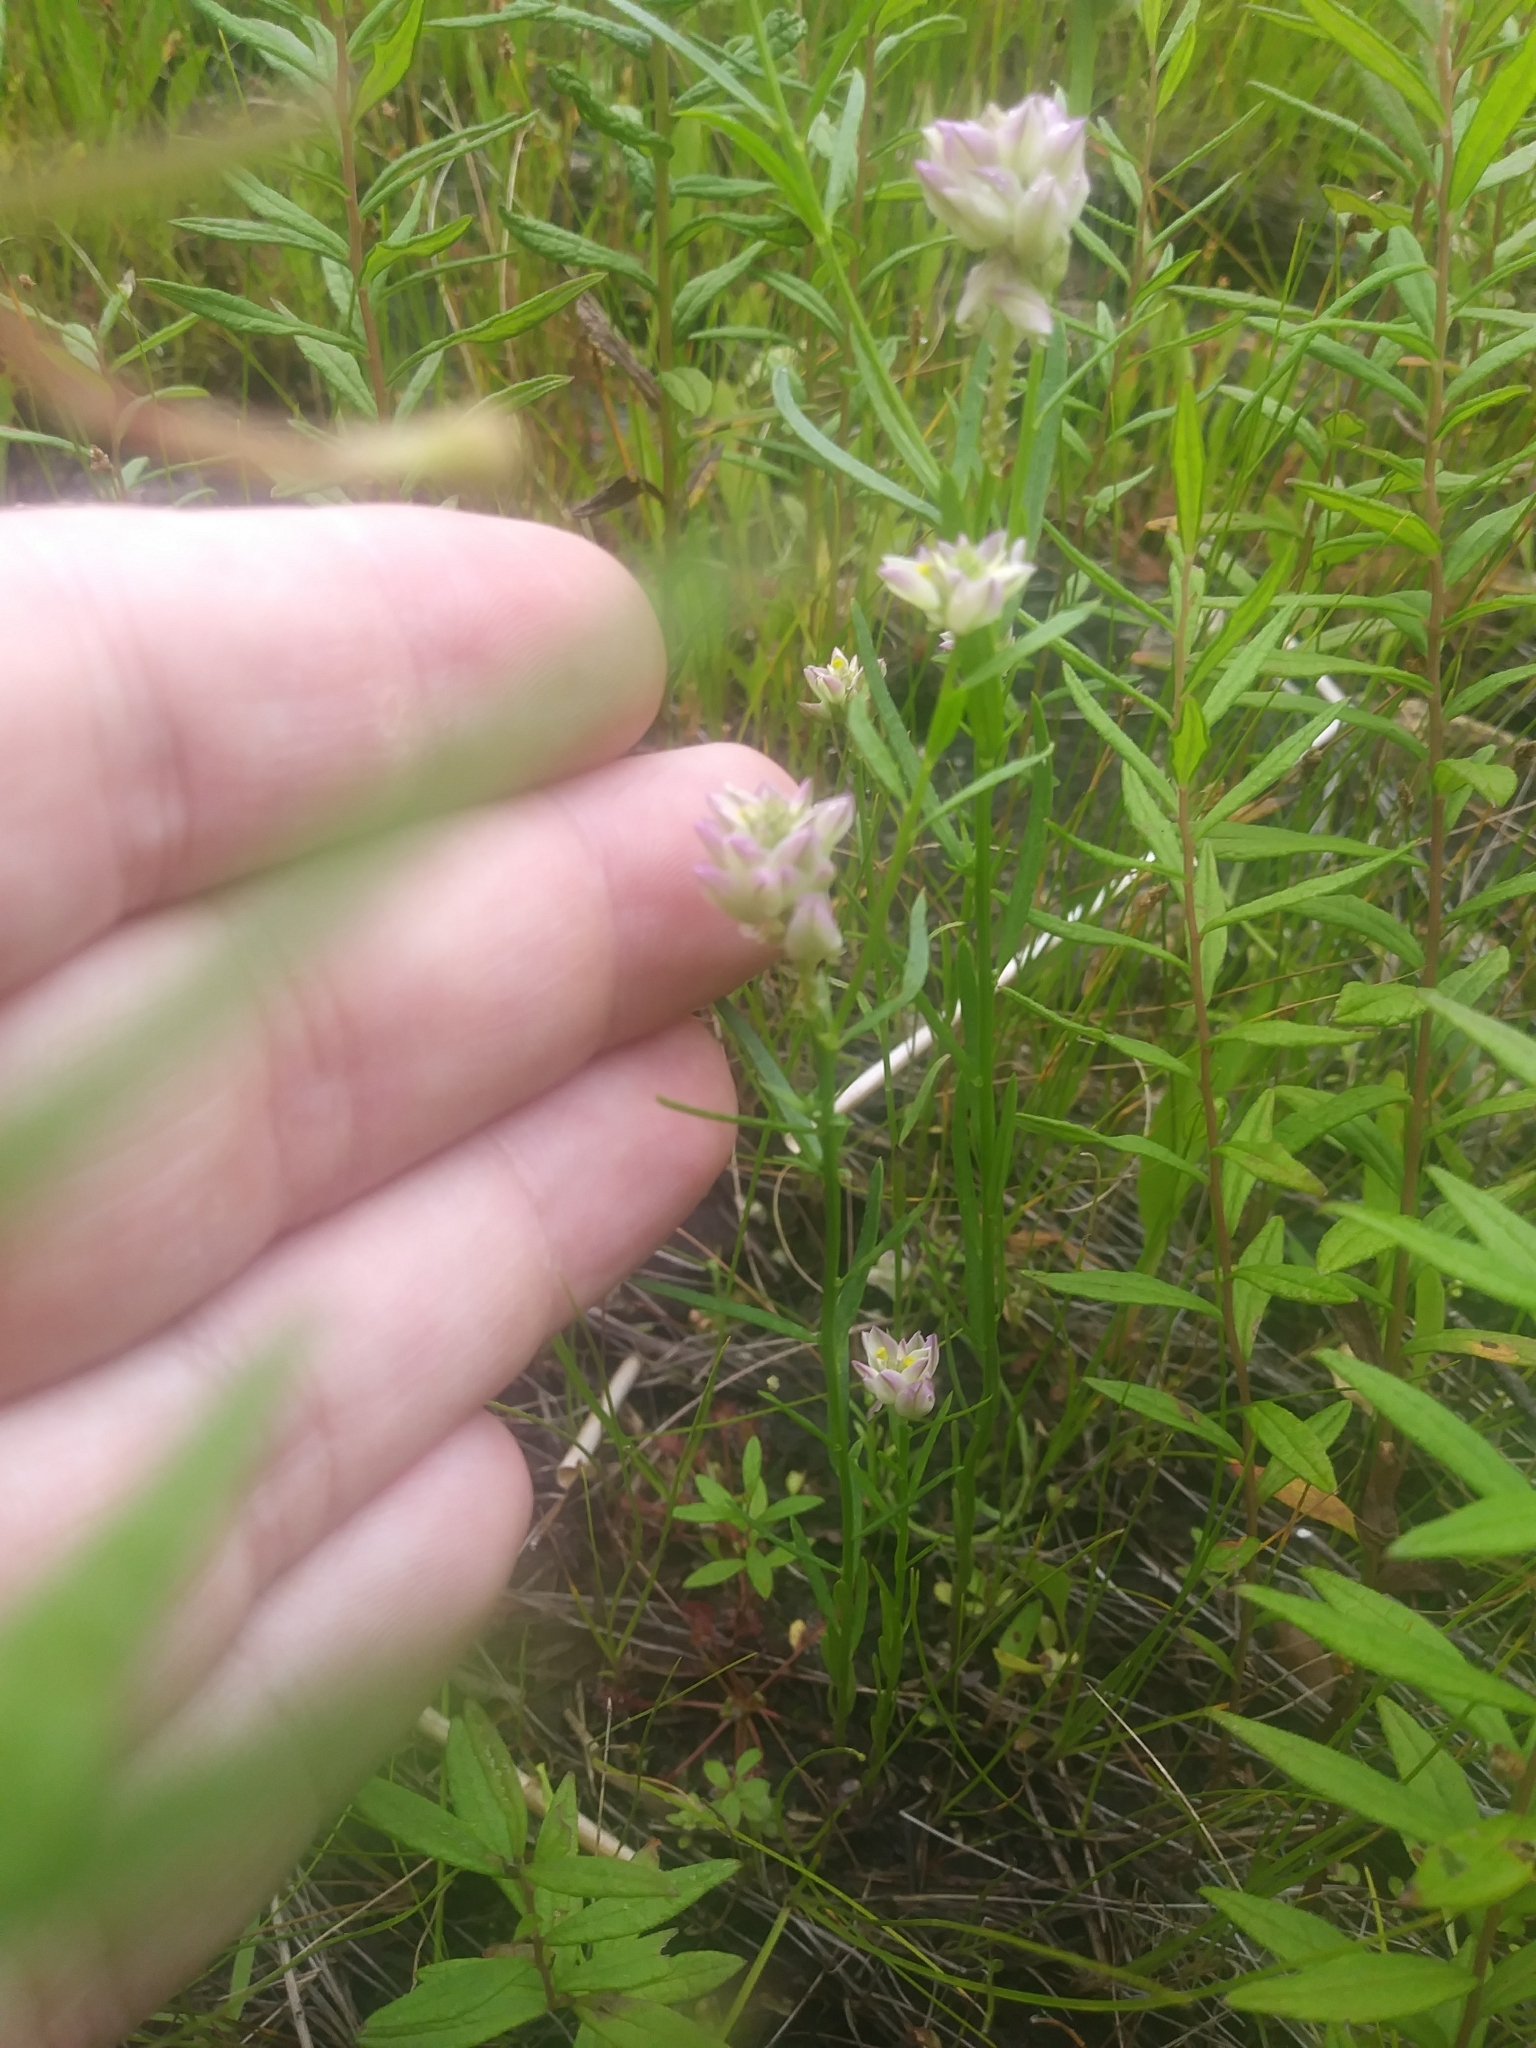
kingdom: Plantae
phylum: Tracheophyta
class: Magnoliopsida
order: Fabales
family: Polygalaceae
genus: Polygala
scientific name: Polygala sanguinea
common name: Blood milkwort
